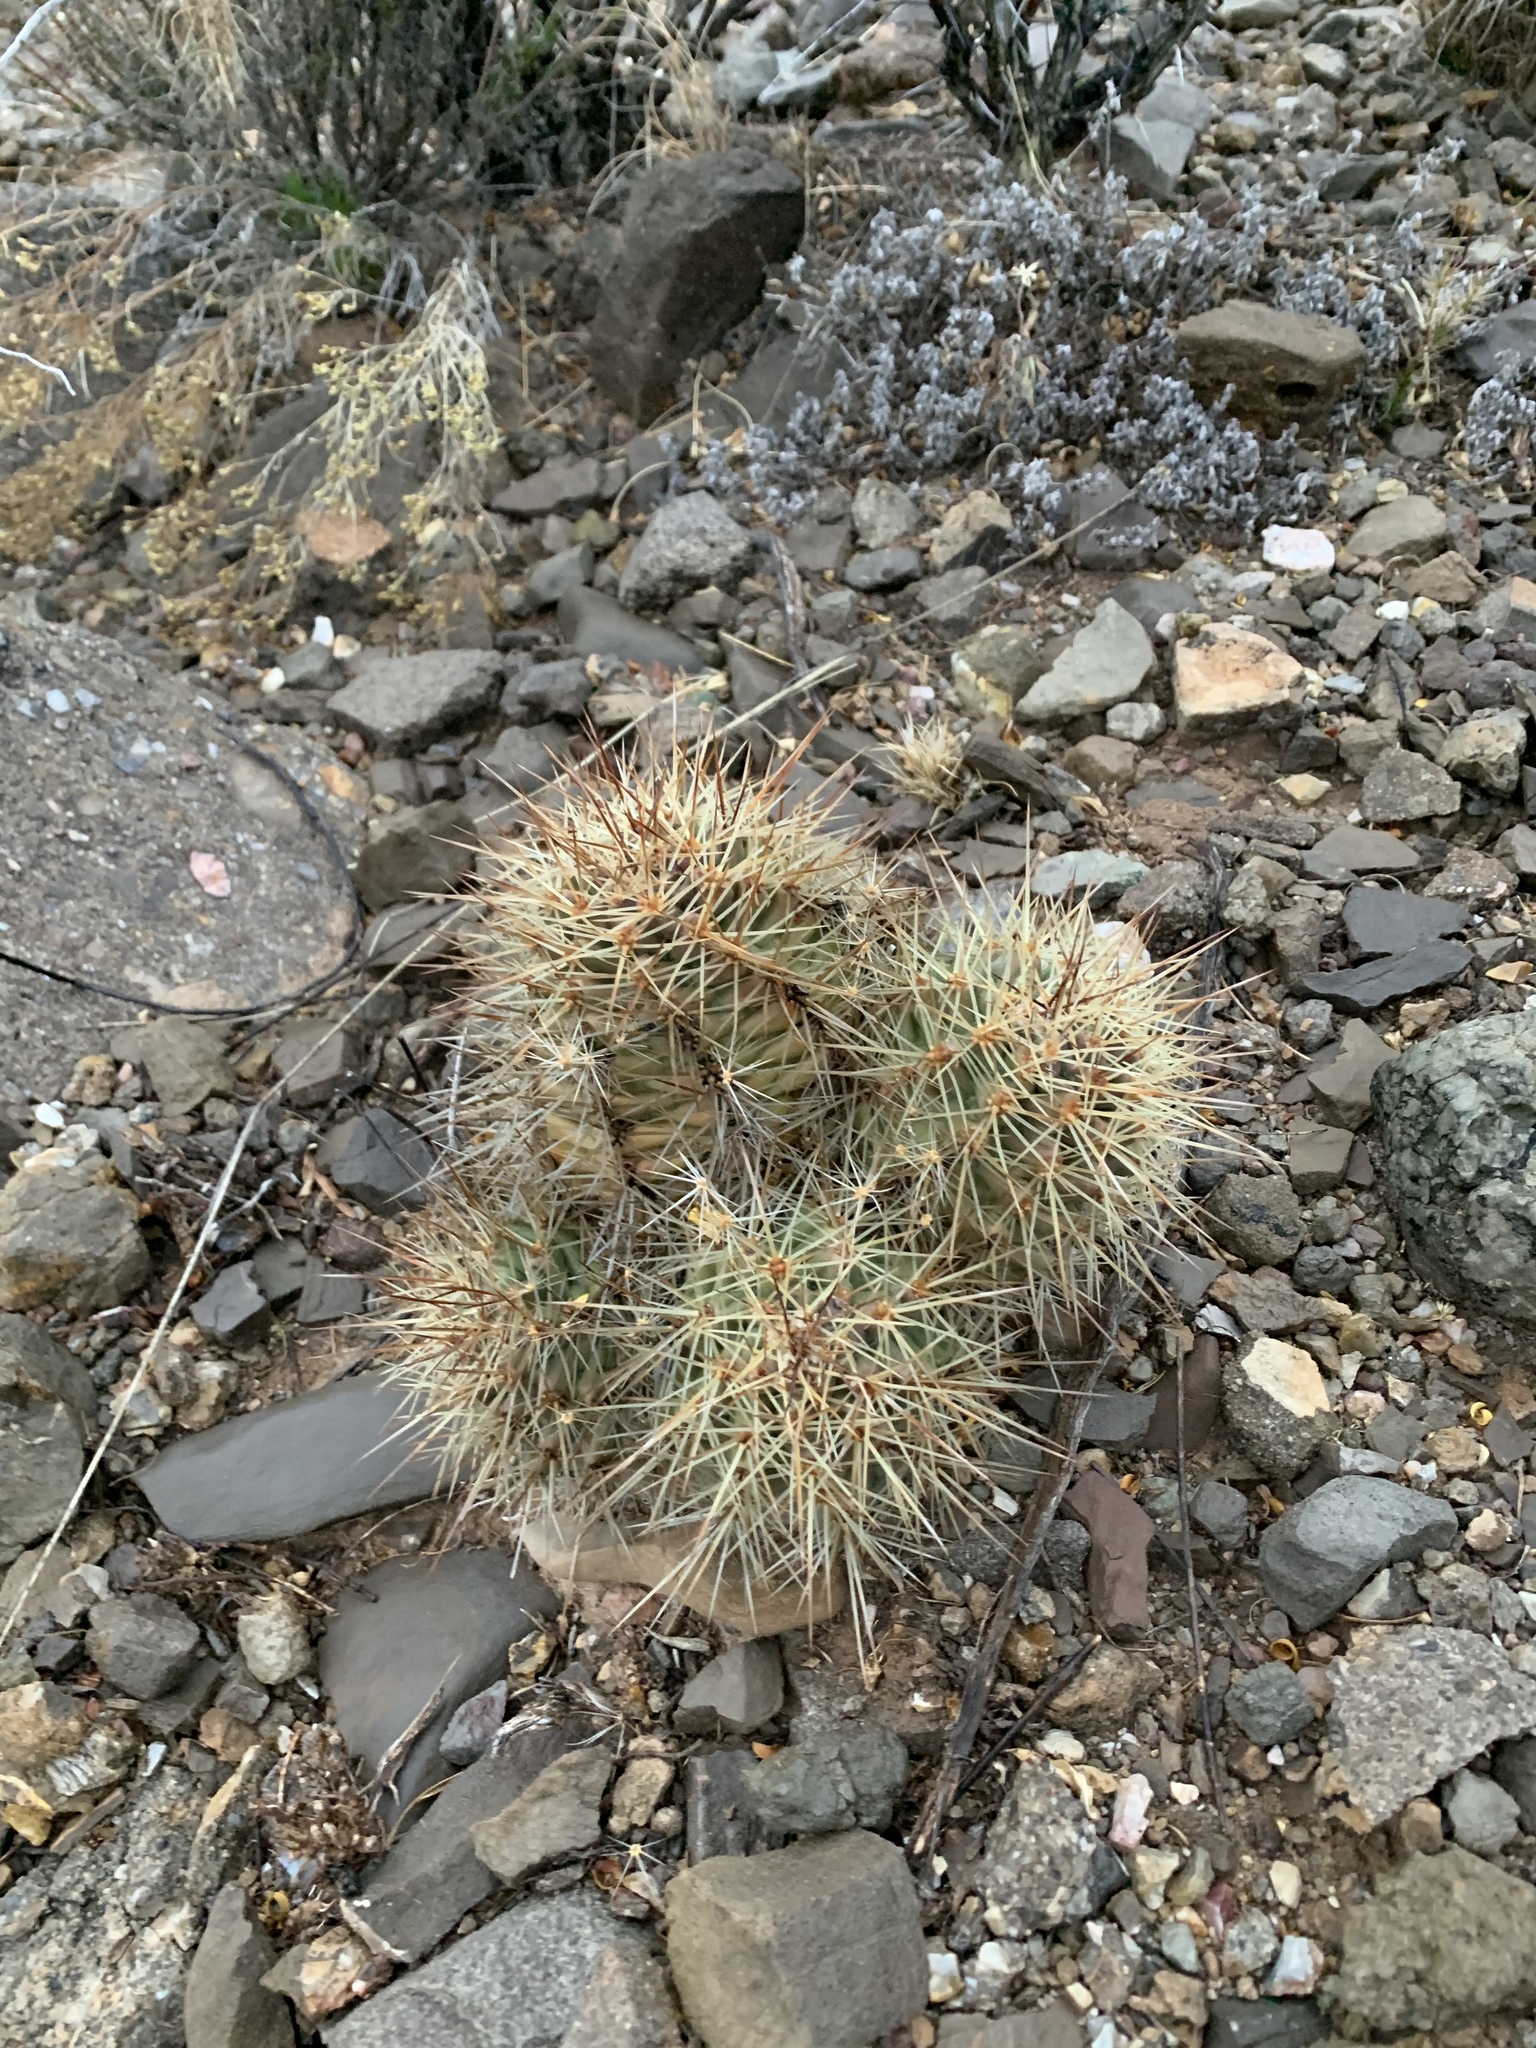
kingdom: Plantae
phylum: Tracheophyta
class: Magnoliopsida
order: Caryophyllales
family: Cactaceae
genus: Echinocereus
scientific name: Echinocereus coccineus
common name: Scarlet hedgehog cactus
